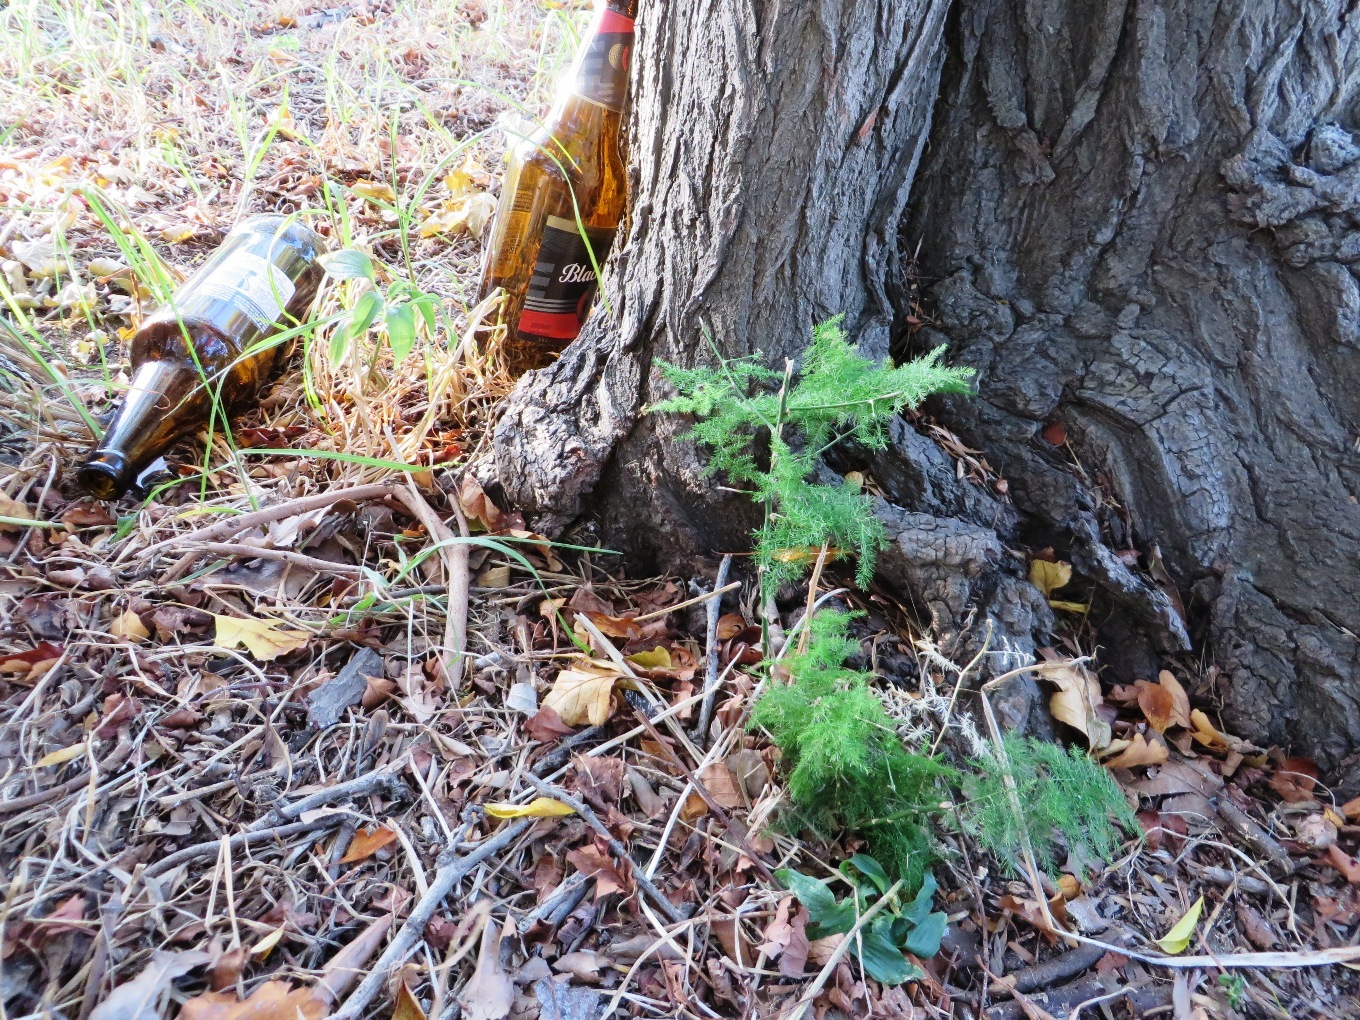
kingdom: Plantae
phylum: Tracheophyta
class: Liliopsida
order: Asparagales
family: Asparagaceae
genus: Asparagus
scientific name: Asparagus setaceus
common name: Common asparagus fern
